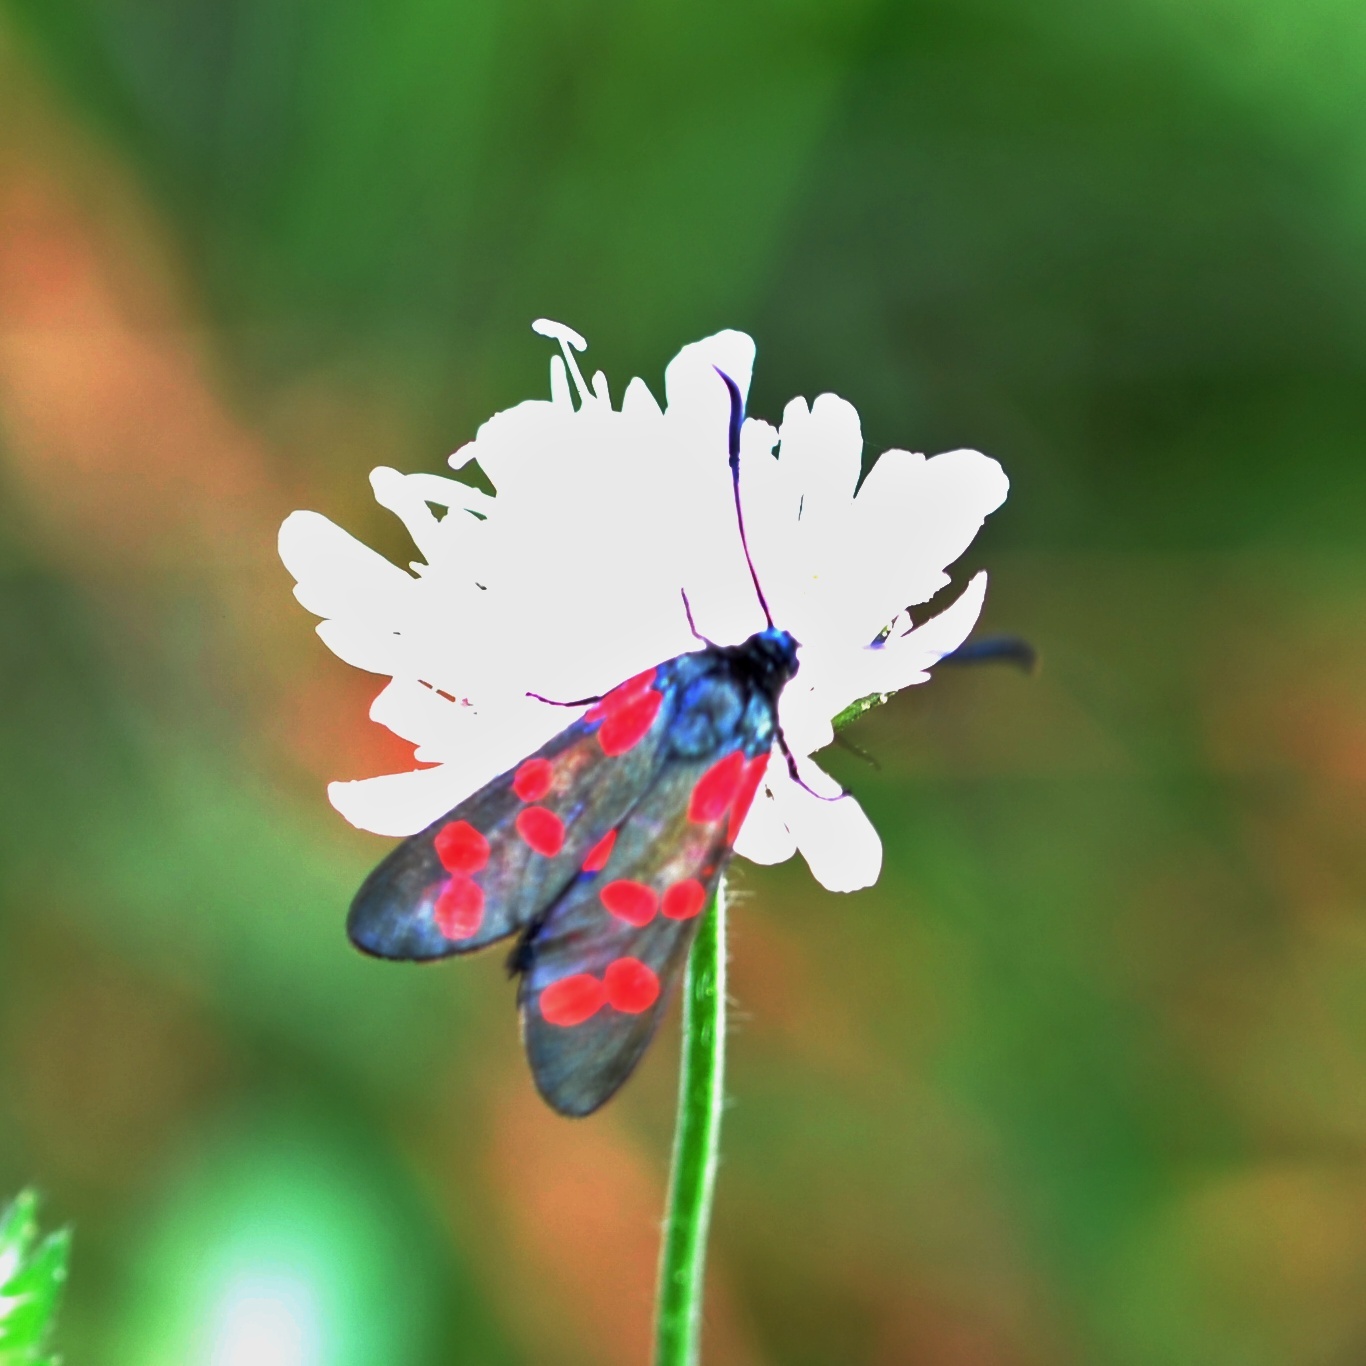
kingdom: Animalia
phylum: Arthropoda
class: Insecta
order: Lepidoptera
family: Zygaenidae
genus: Zygaena
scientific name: Zygaena filipendulae
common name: Six-spot burnet
